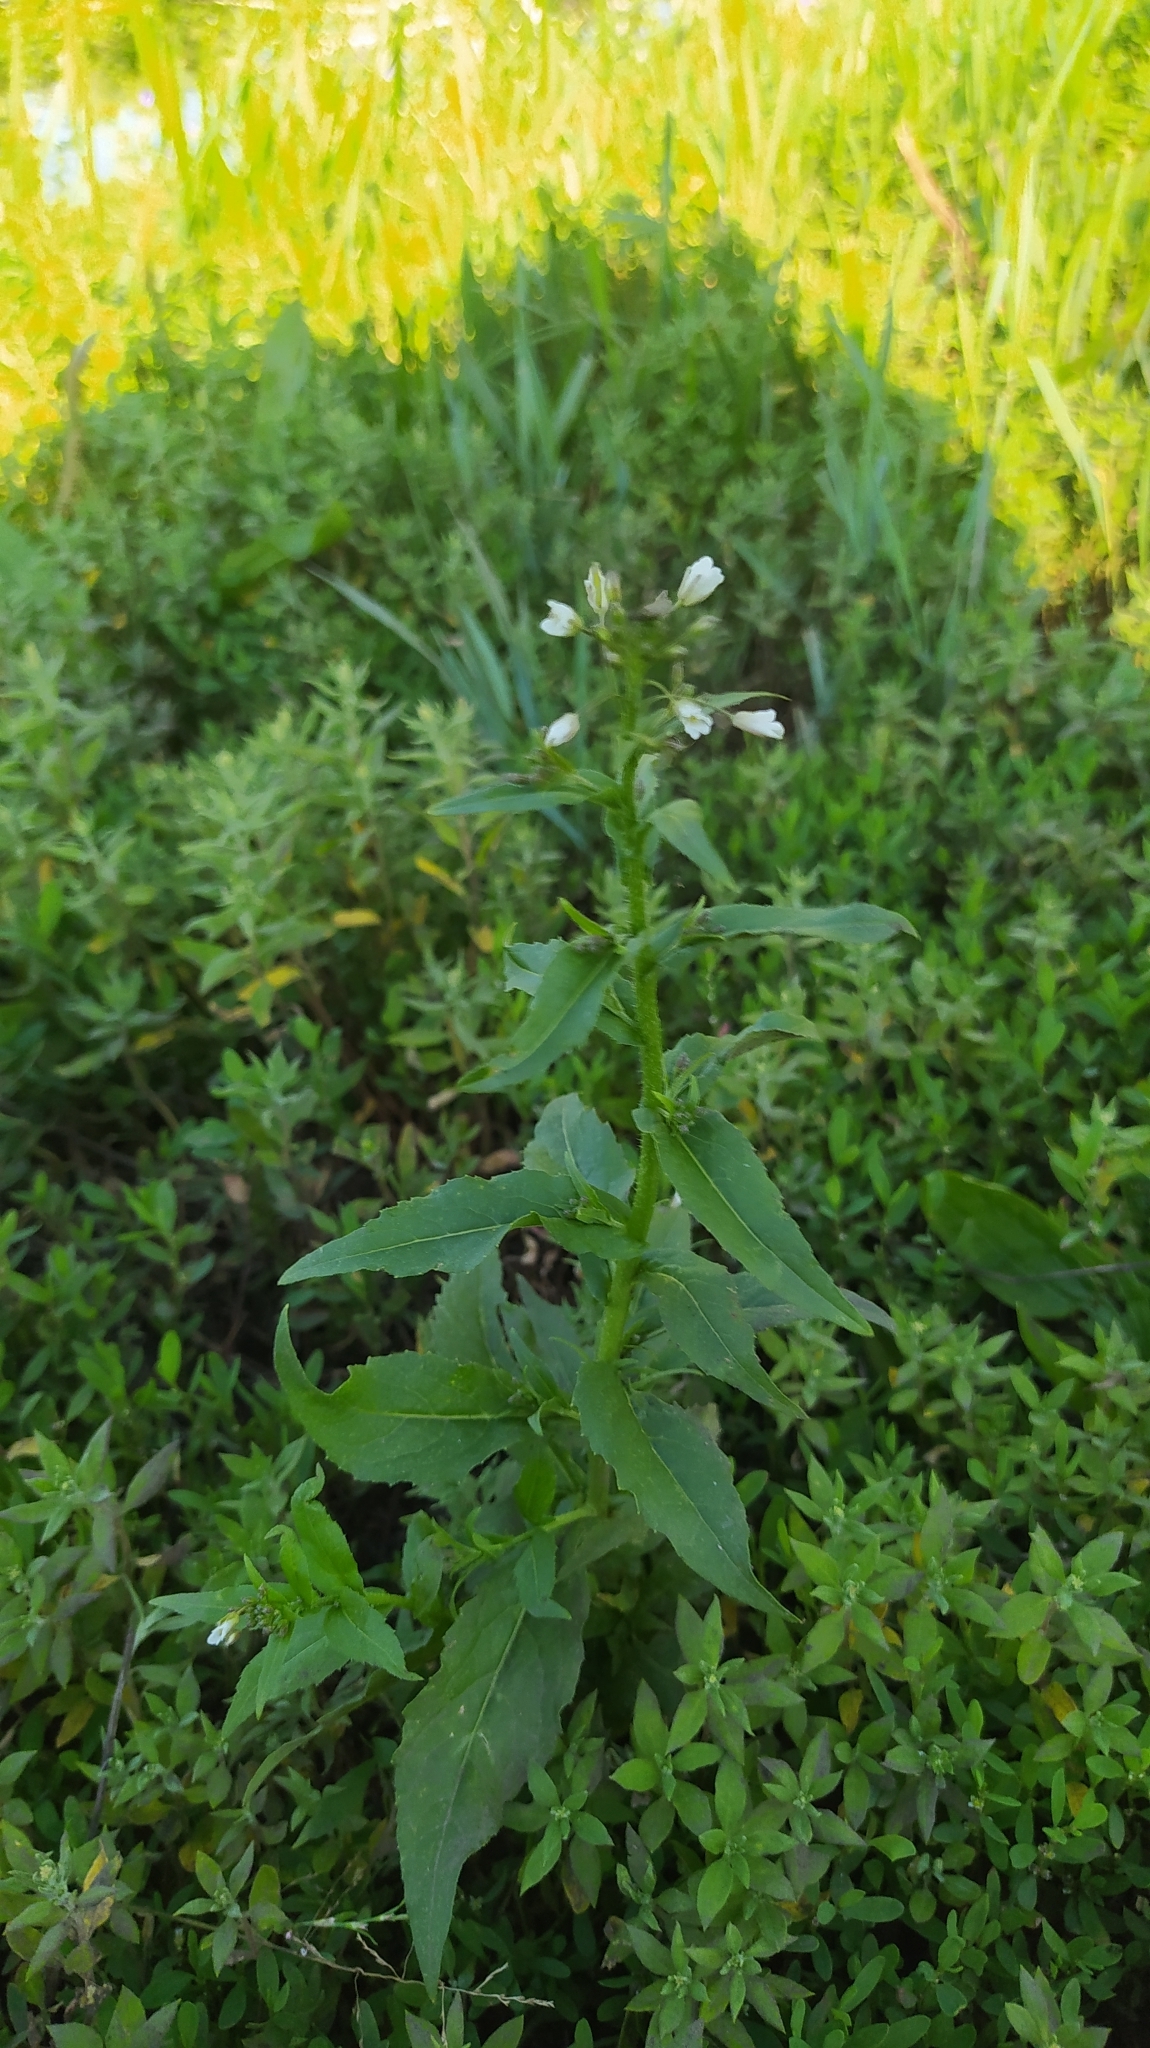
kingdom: Plantae
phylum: Tracheophyta
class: Magnoliopsida
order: Brassicales
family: Brassicaceae
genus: Catolobus
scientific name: Catolobus pendulus
